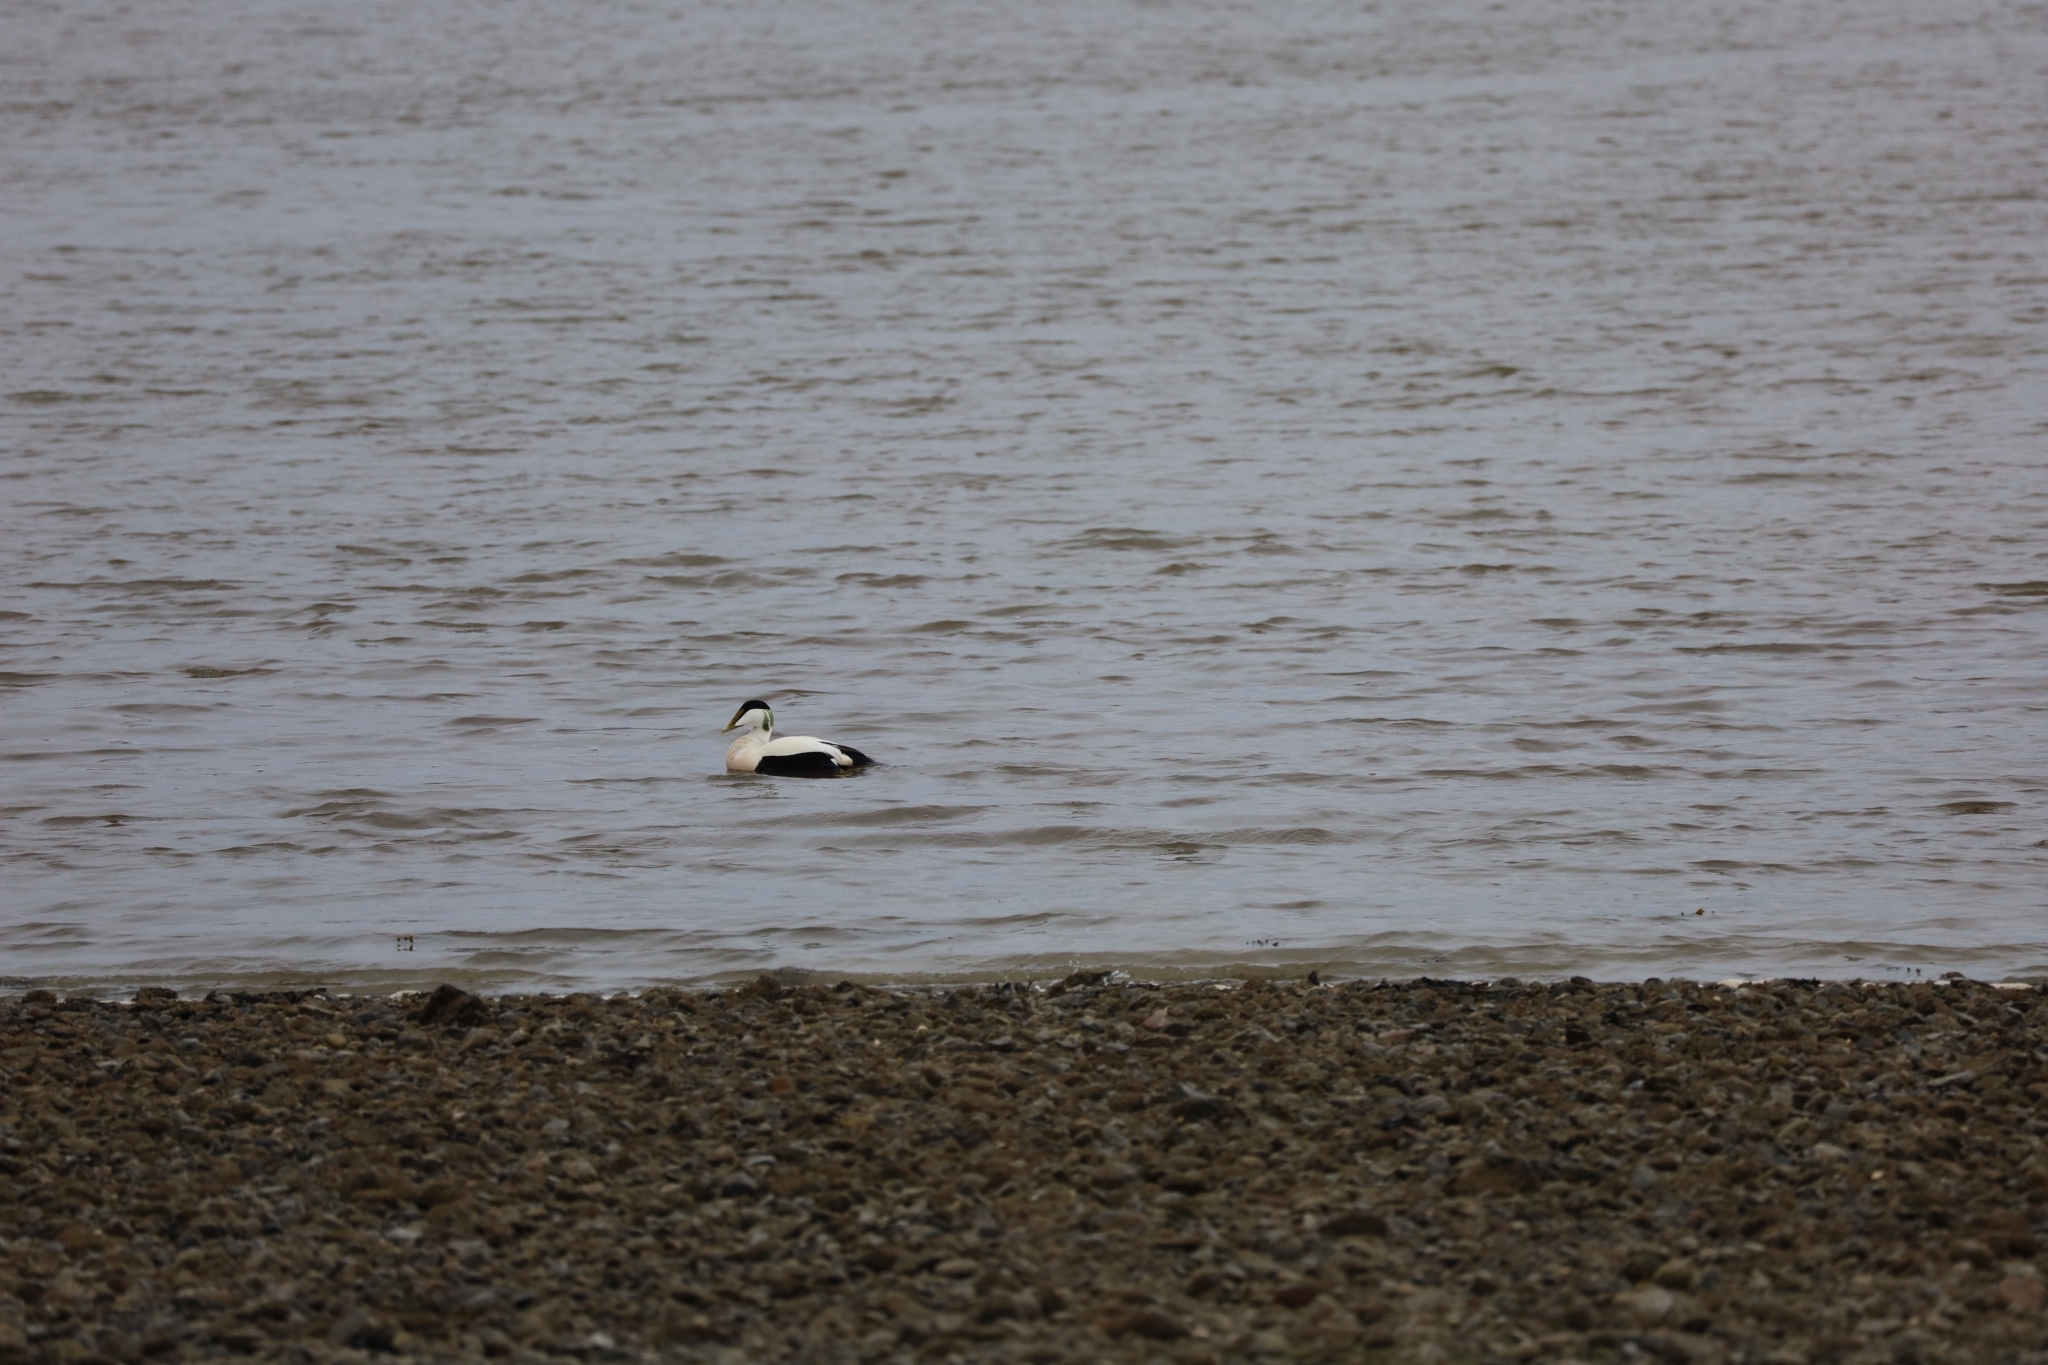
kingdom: Animalia
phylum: Chordata
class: Aves
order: Anseriformes
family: Anatidae
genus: Somateria
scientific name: Somateria mollissima
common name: Common eider
